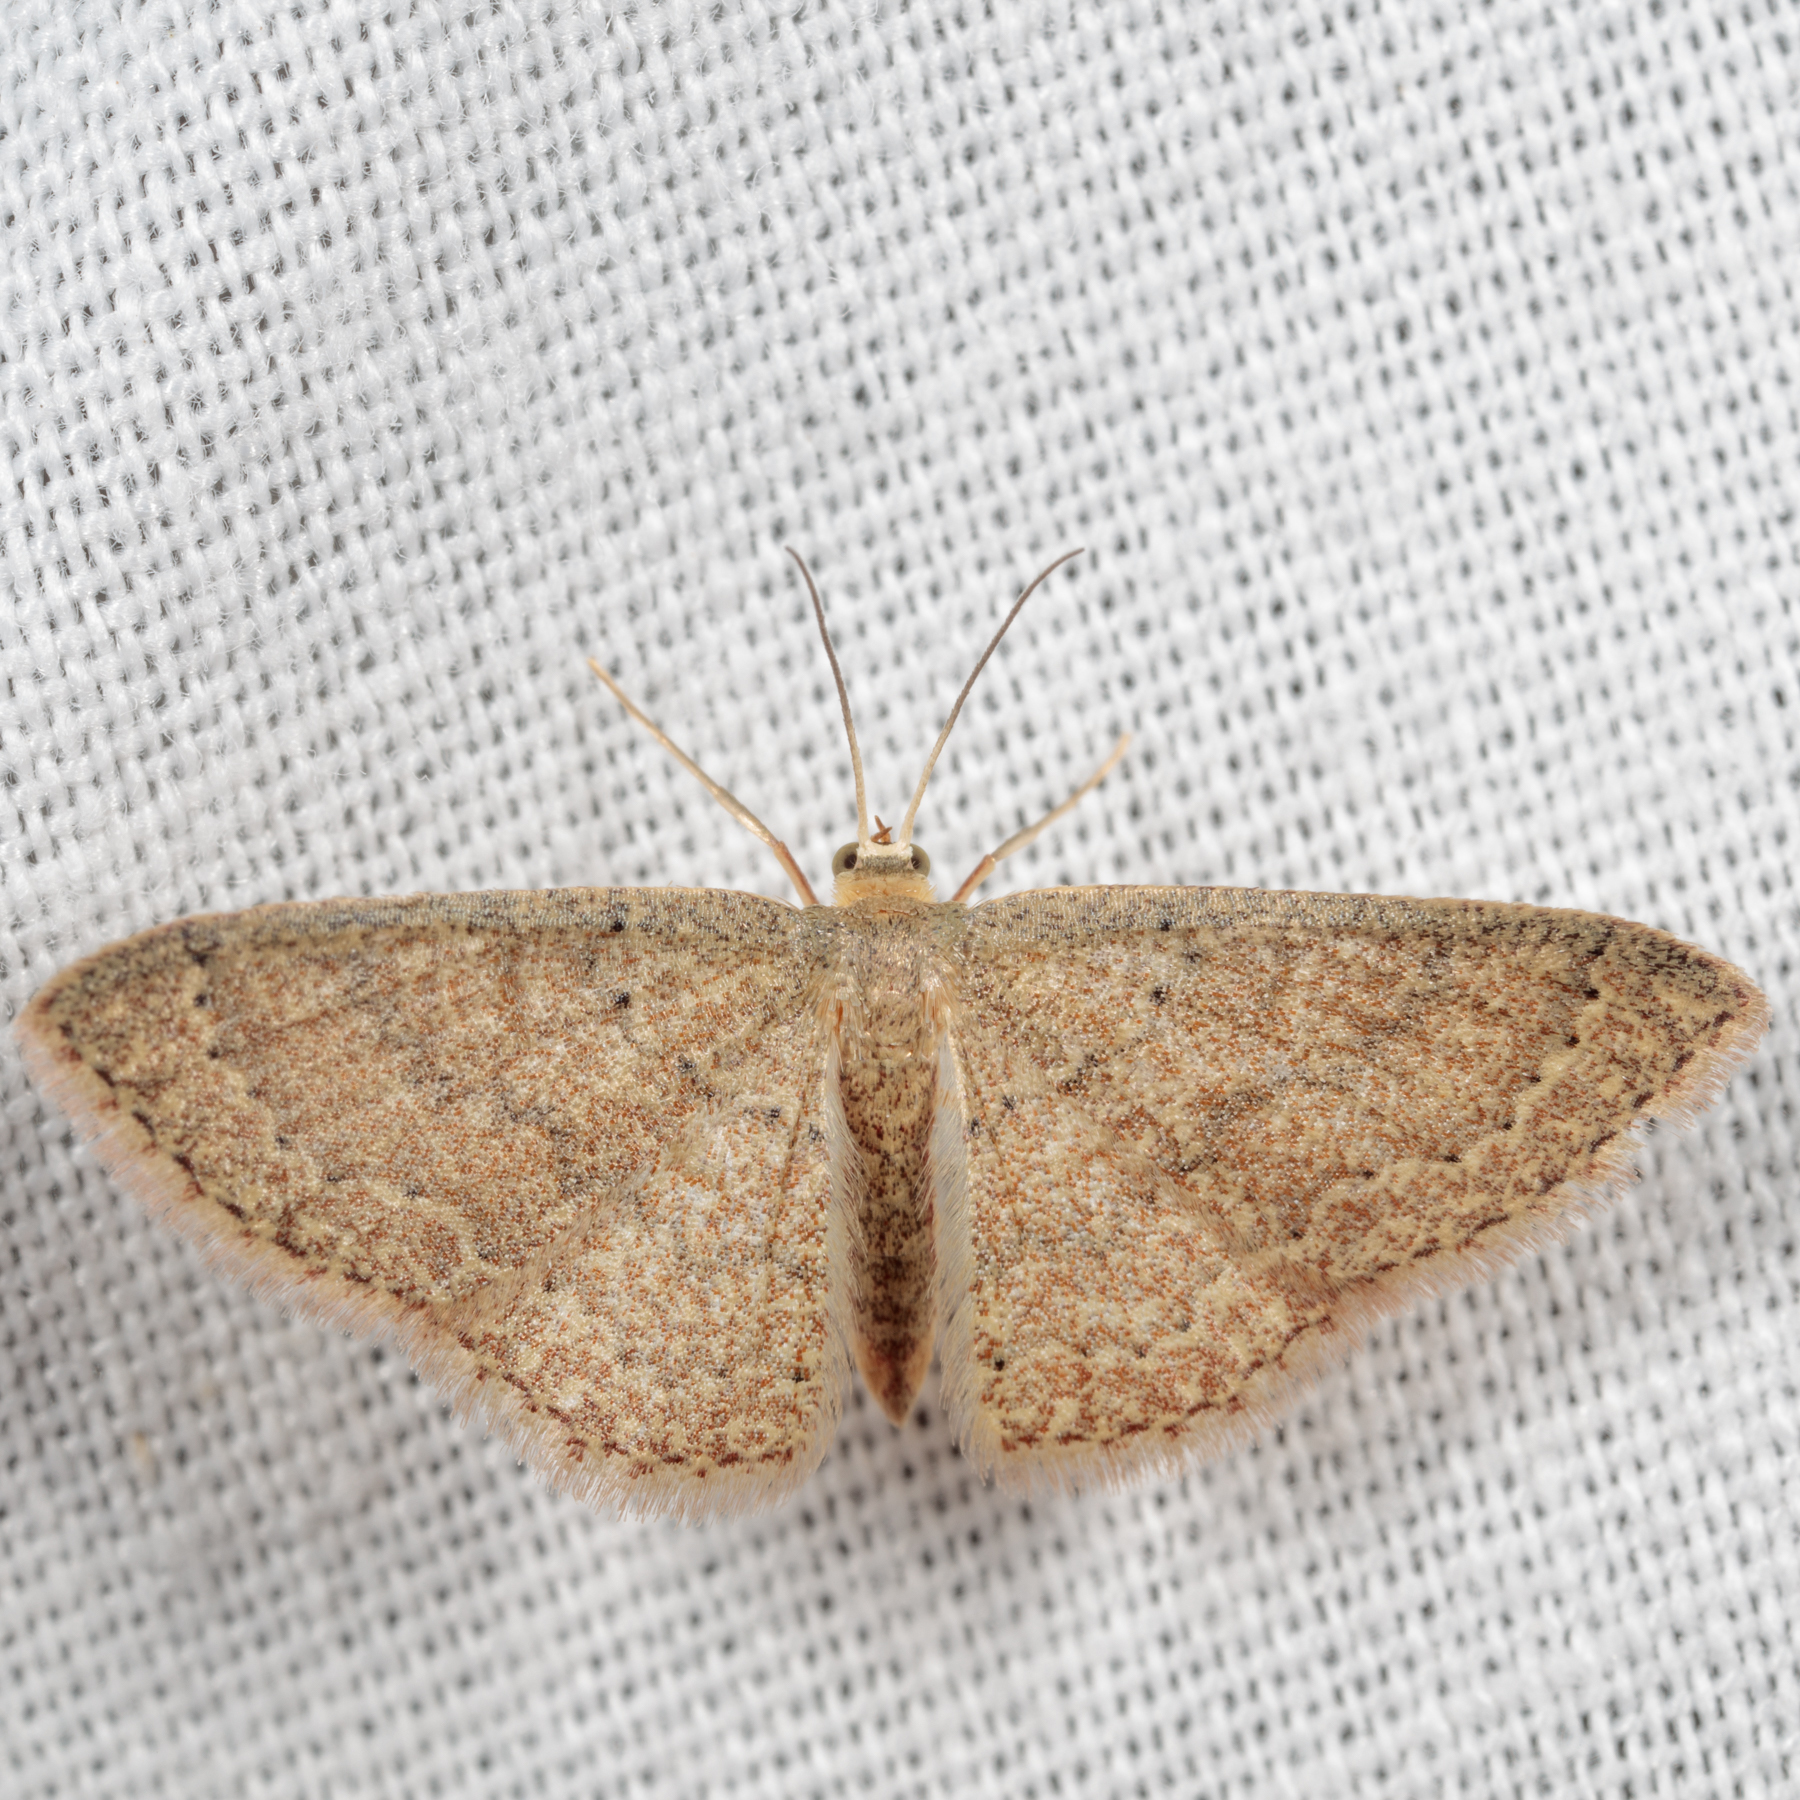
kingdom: Animalia
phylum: Arthropoda
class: Insecta
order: Lepidoptera
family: Geometridae
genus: Pleuroprucha
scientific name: Pleuroprucha insulsaria
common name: Common tan wave
